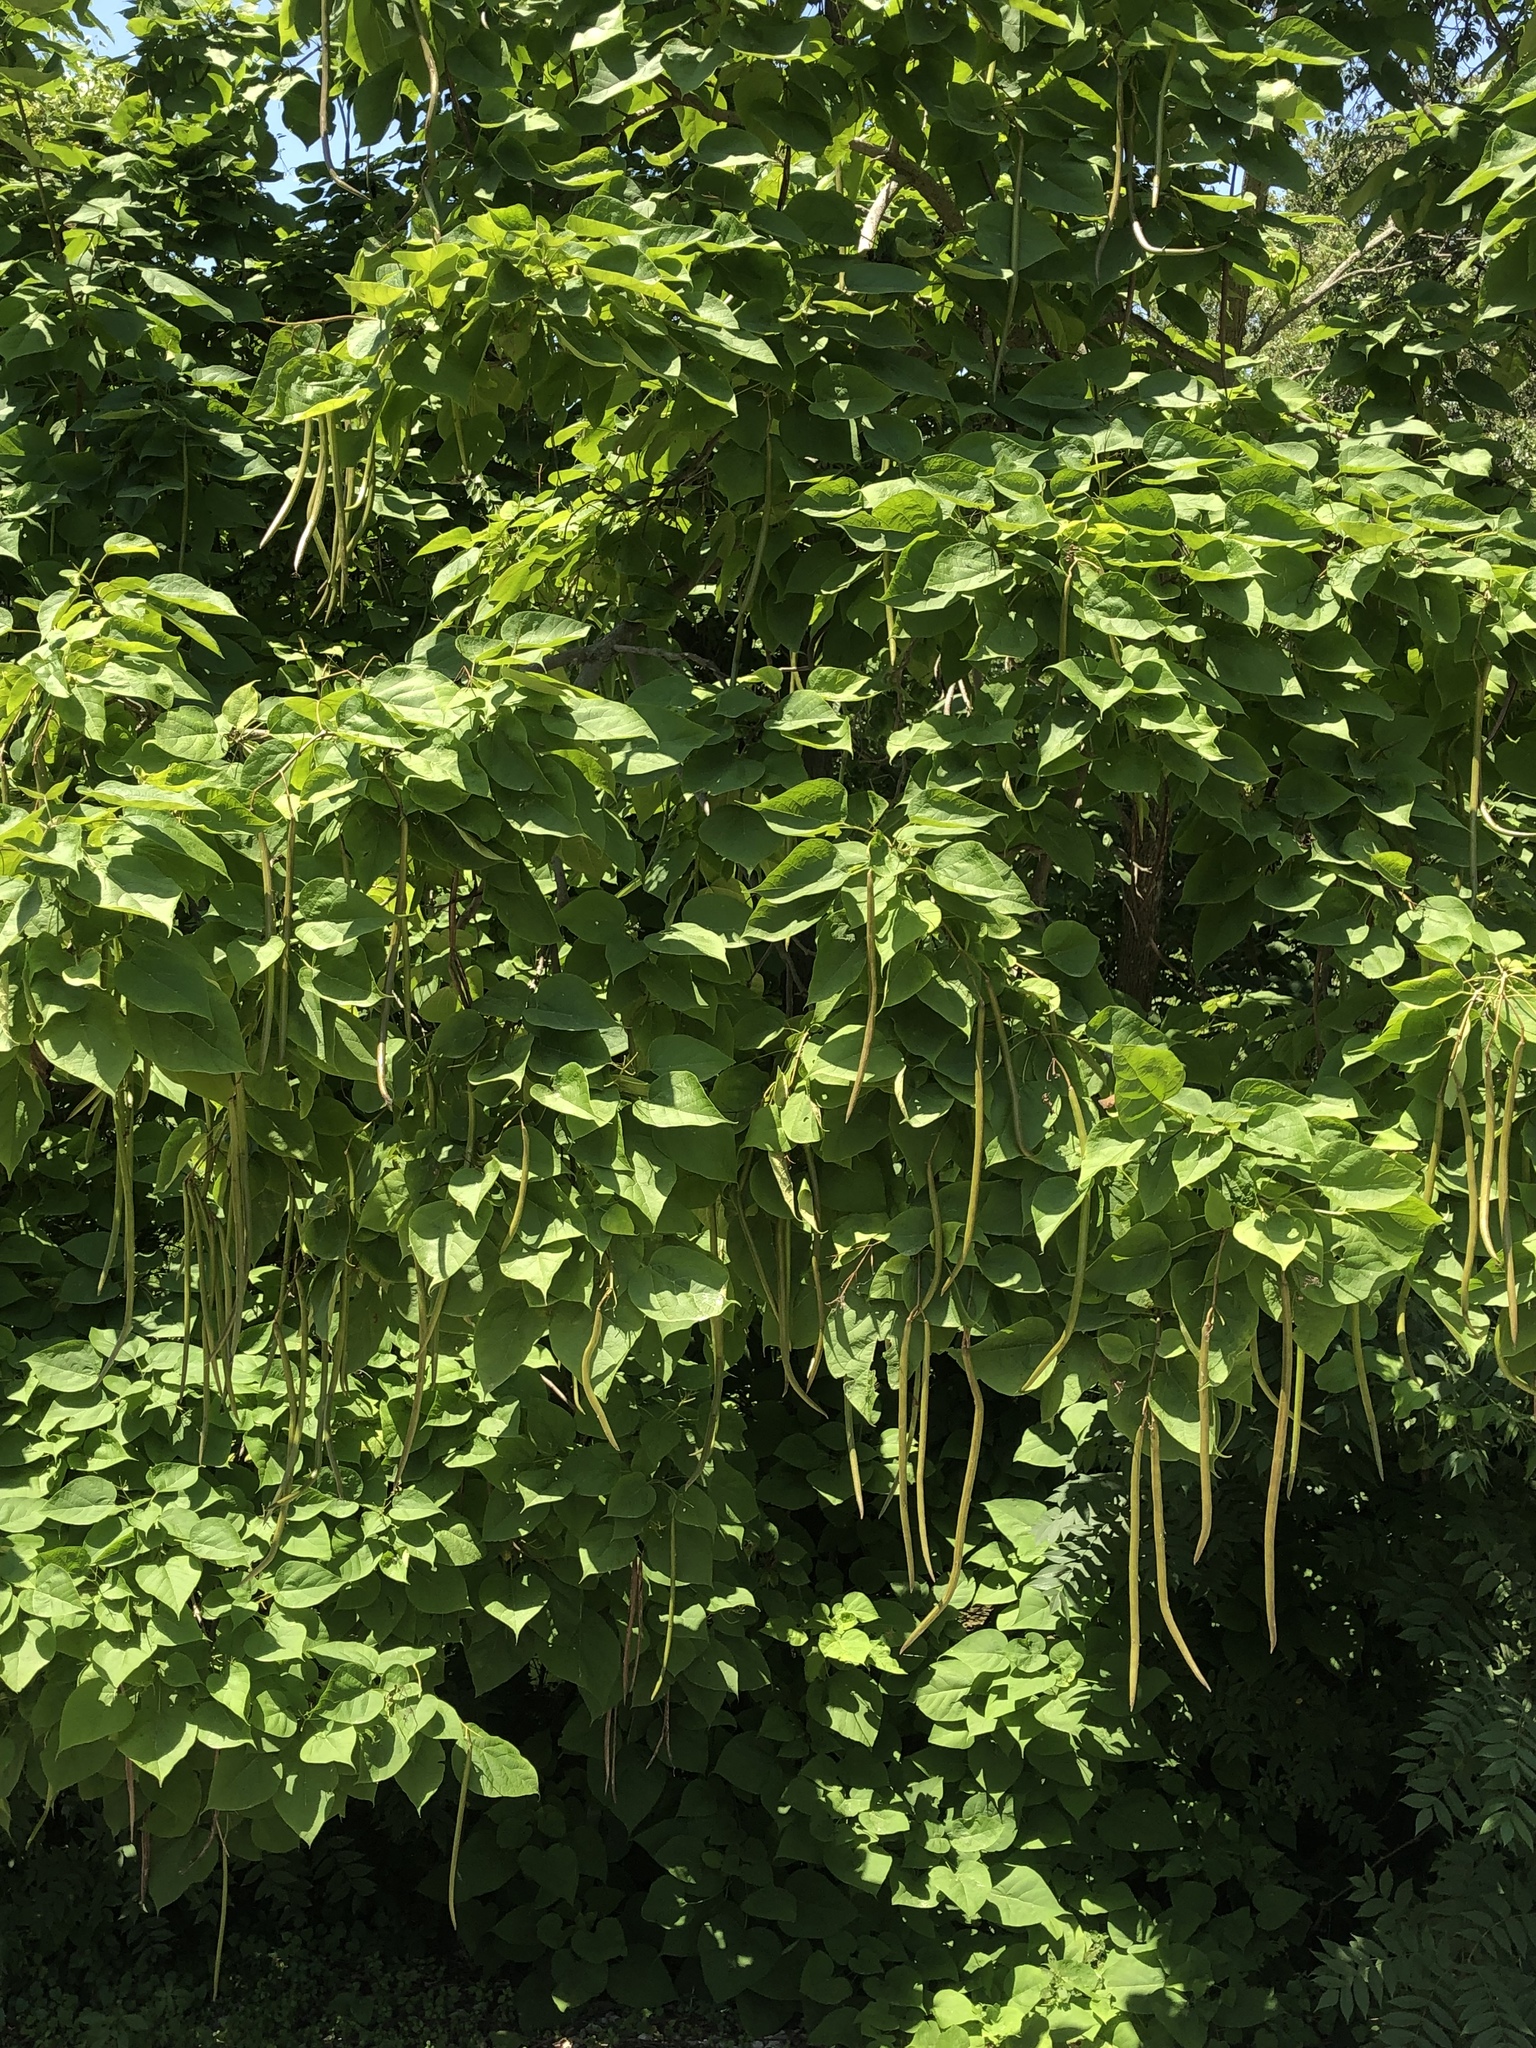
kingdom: Plantae
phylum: Tracheophyta
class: Magnoliopsida
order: Lamiales
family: Bignoniaceae
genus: Catalpa
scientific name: Catalpa speciosa
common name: Northern catalpa
